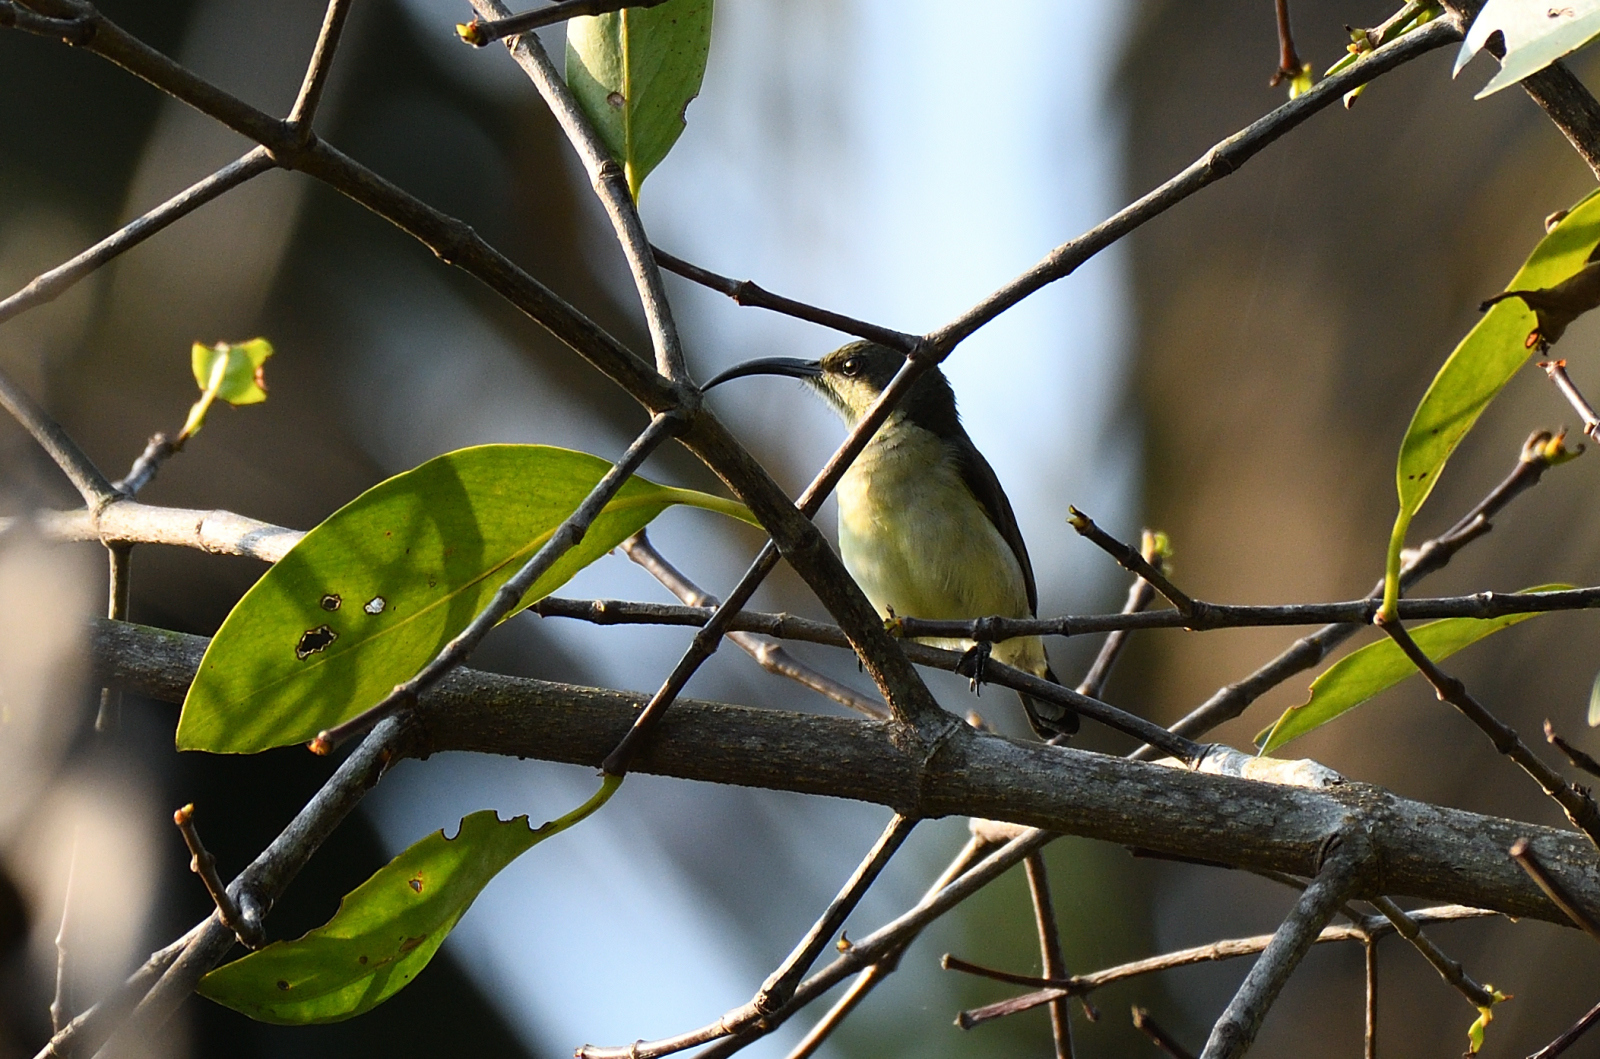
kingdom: Animalia
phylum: Chordata
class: Aves
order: Passeriformes
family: Nectariniidae
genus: Cinnyris
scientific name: Cinnyris lotenius
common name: Loten's sunbird
